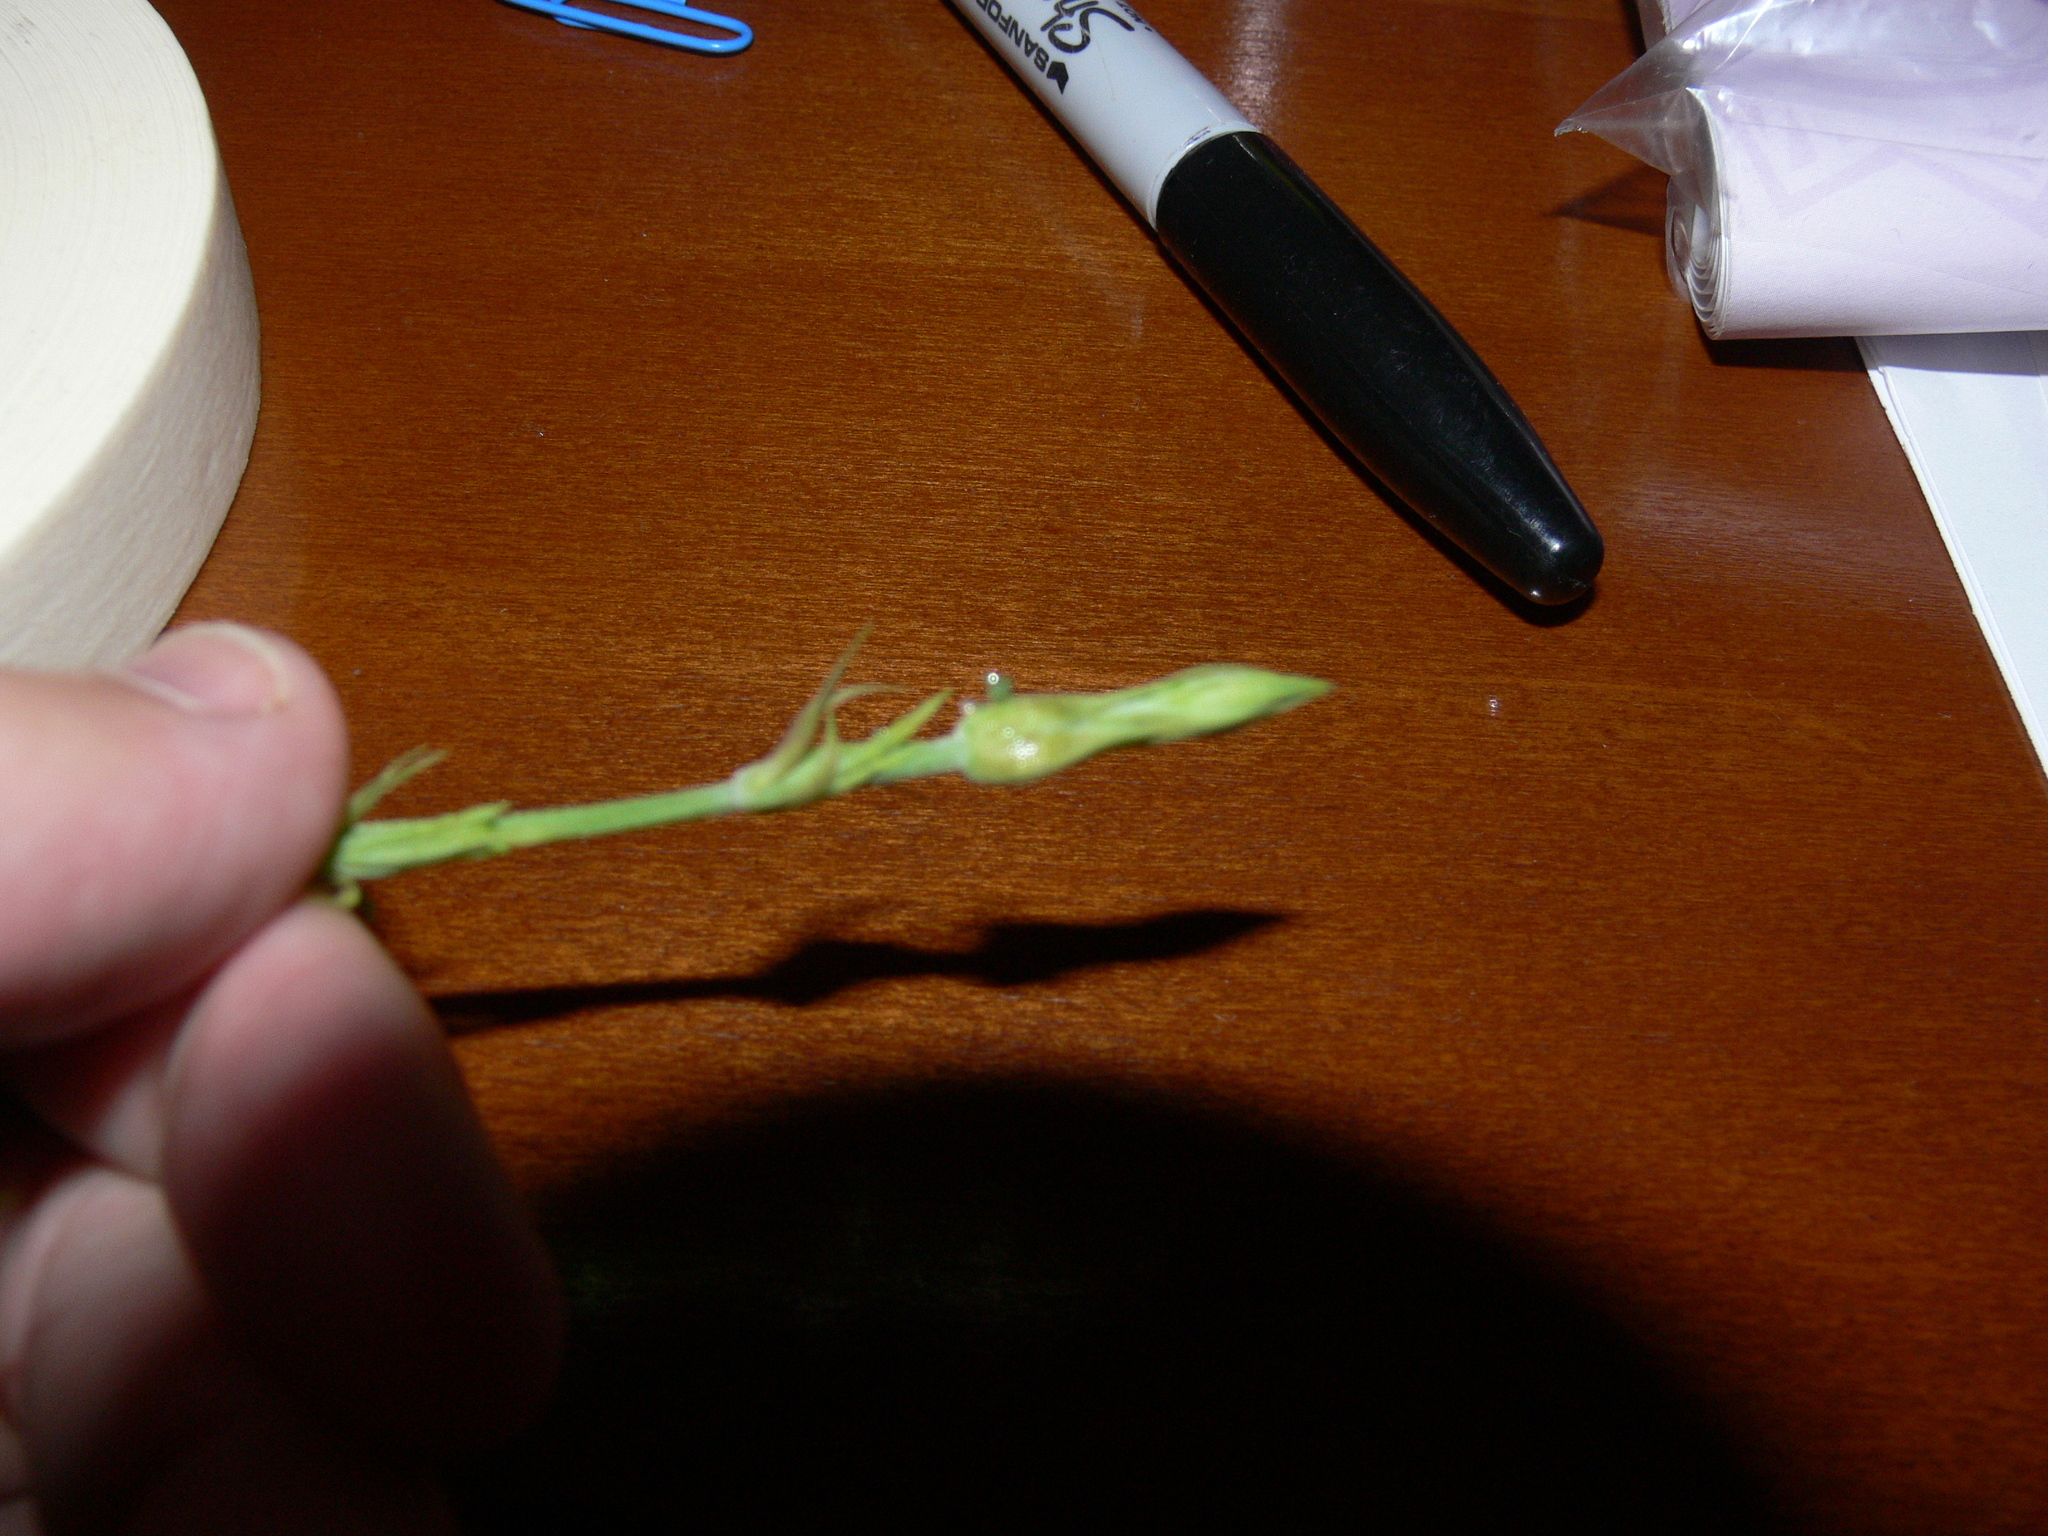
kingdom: Animalia
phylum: Arthropoda
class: Insecta
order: Lepidoptera
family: Nymphalidae
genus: Polygonia
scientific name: Polygonia interrogationis
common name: Question mark
